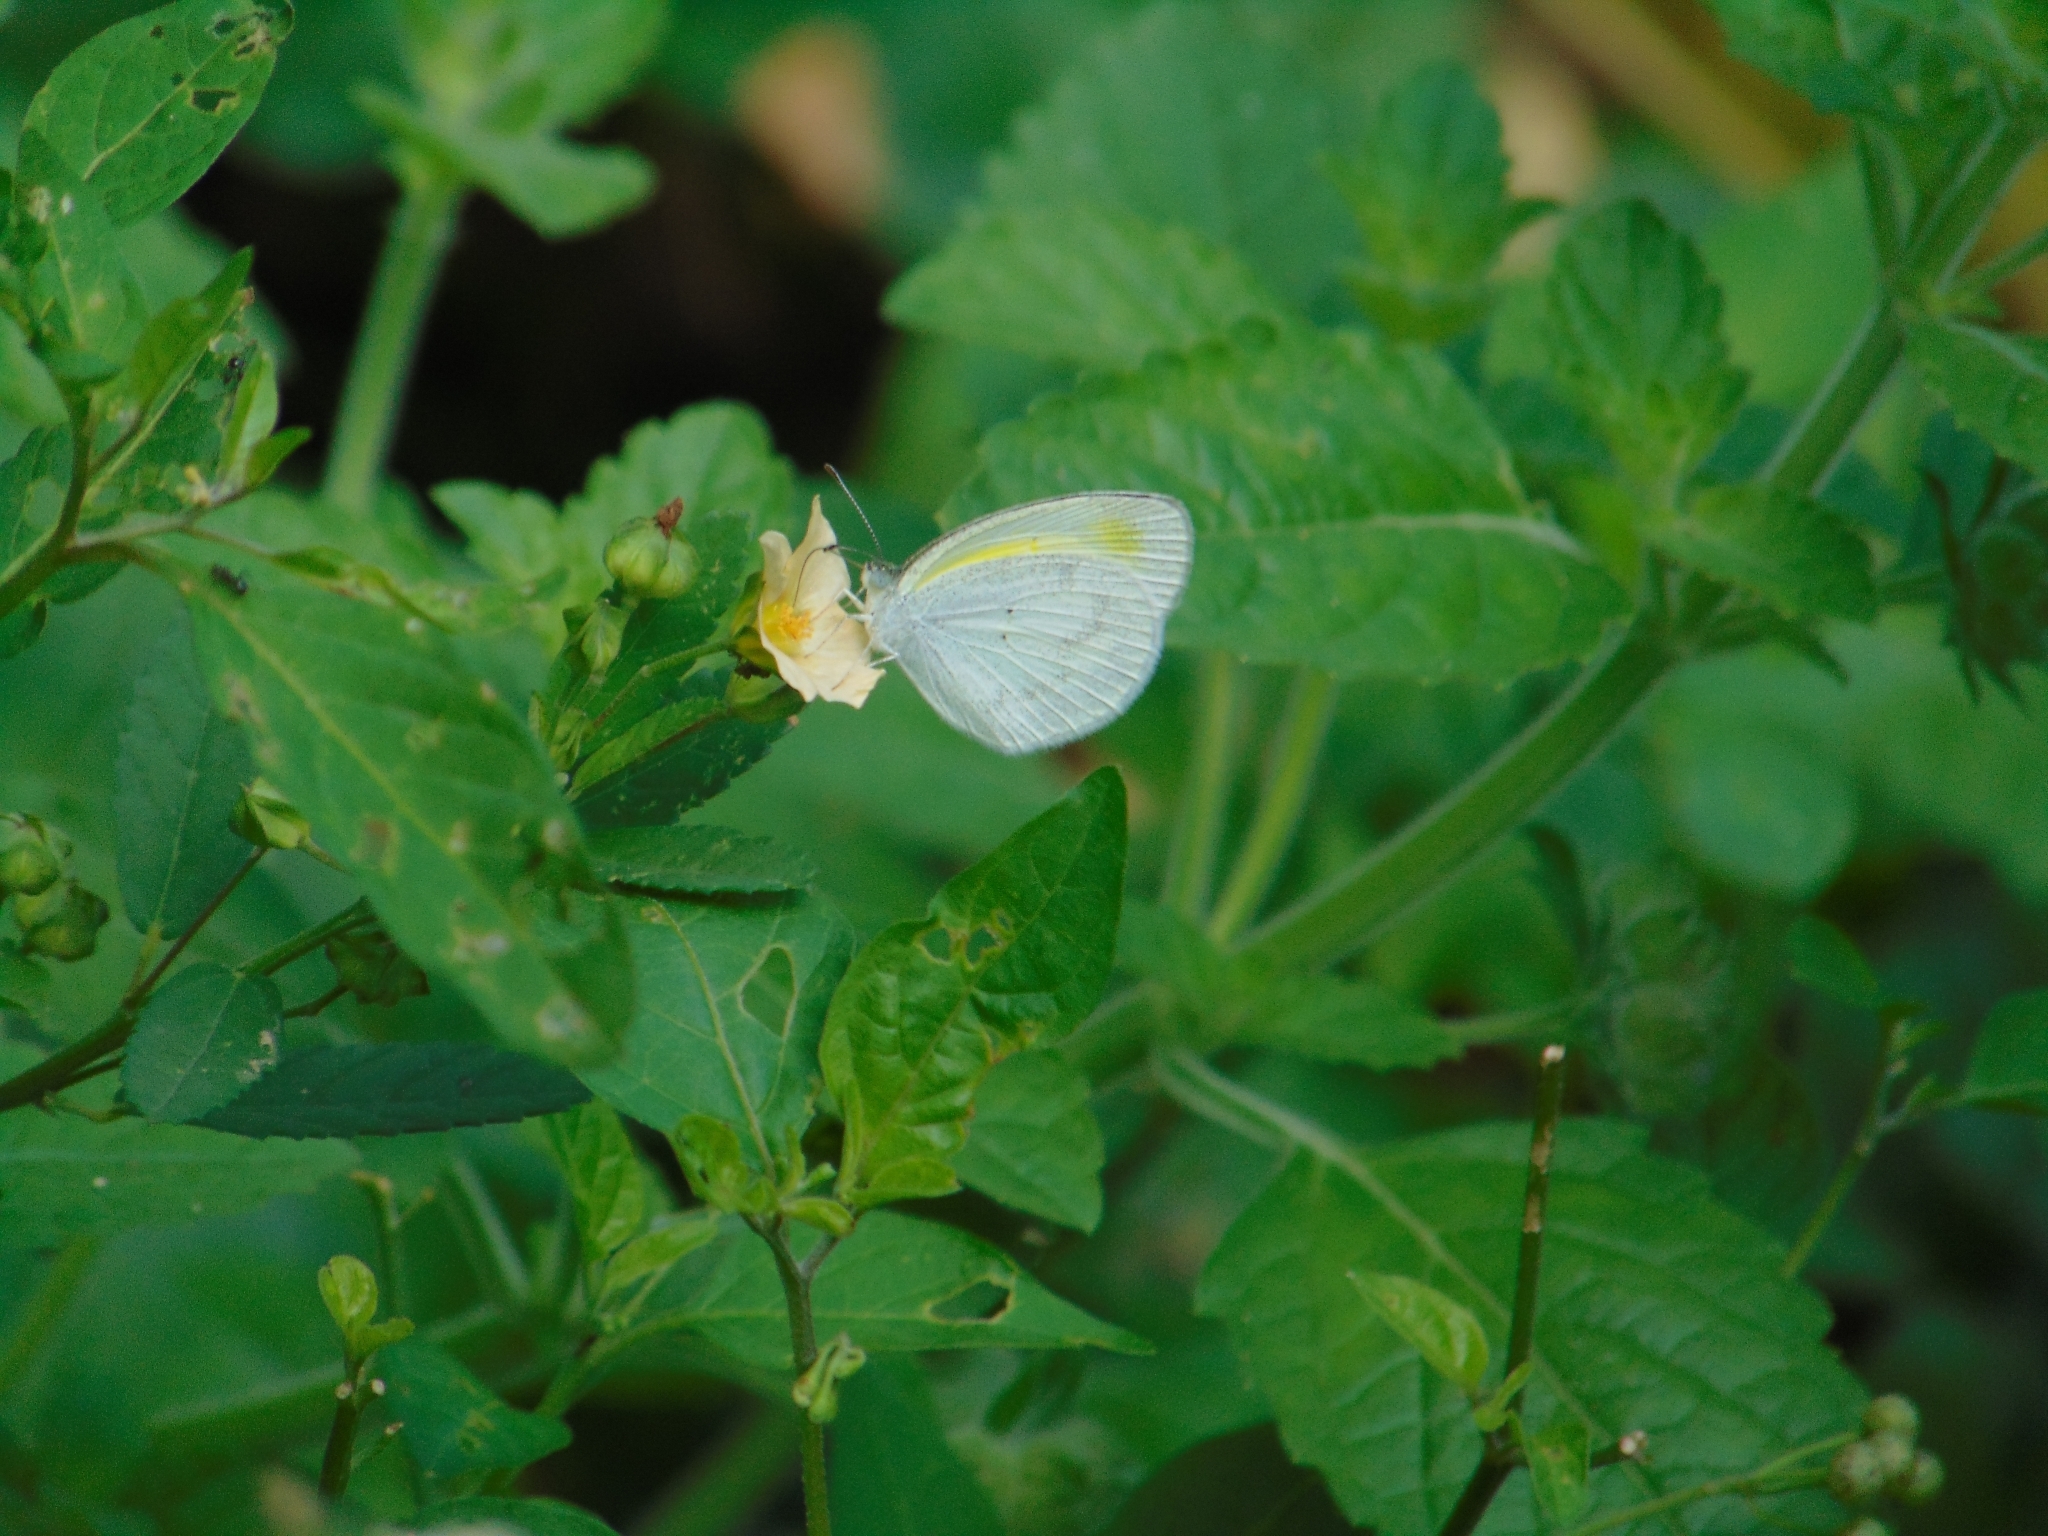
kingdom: Animalia
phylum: Arthropoda
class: Insecta
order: Lepidoptera
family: Pieridae
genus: Eurema
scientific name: Eurema elathea
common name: Banded yellow
